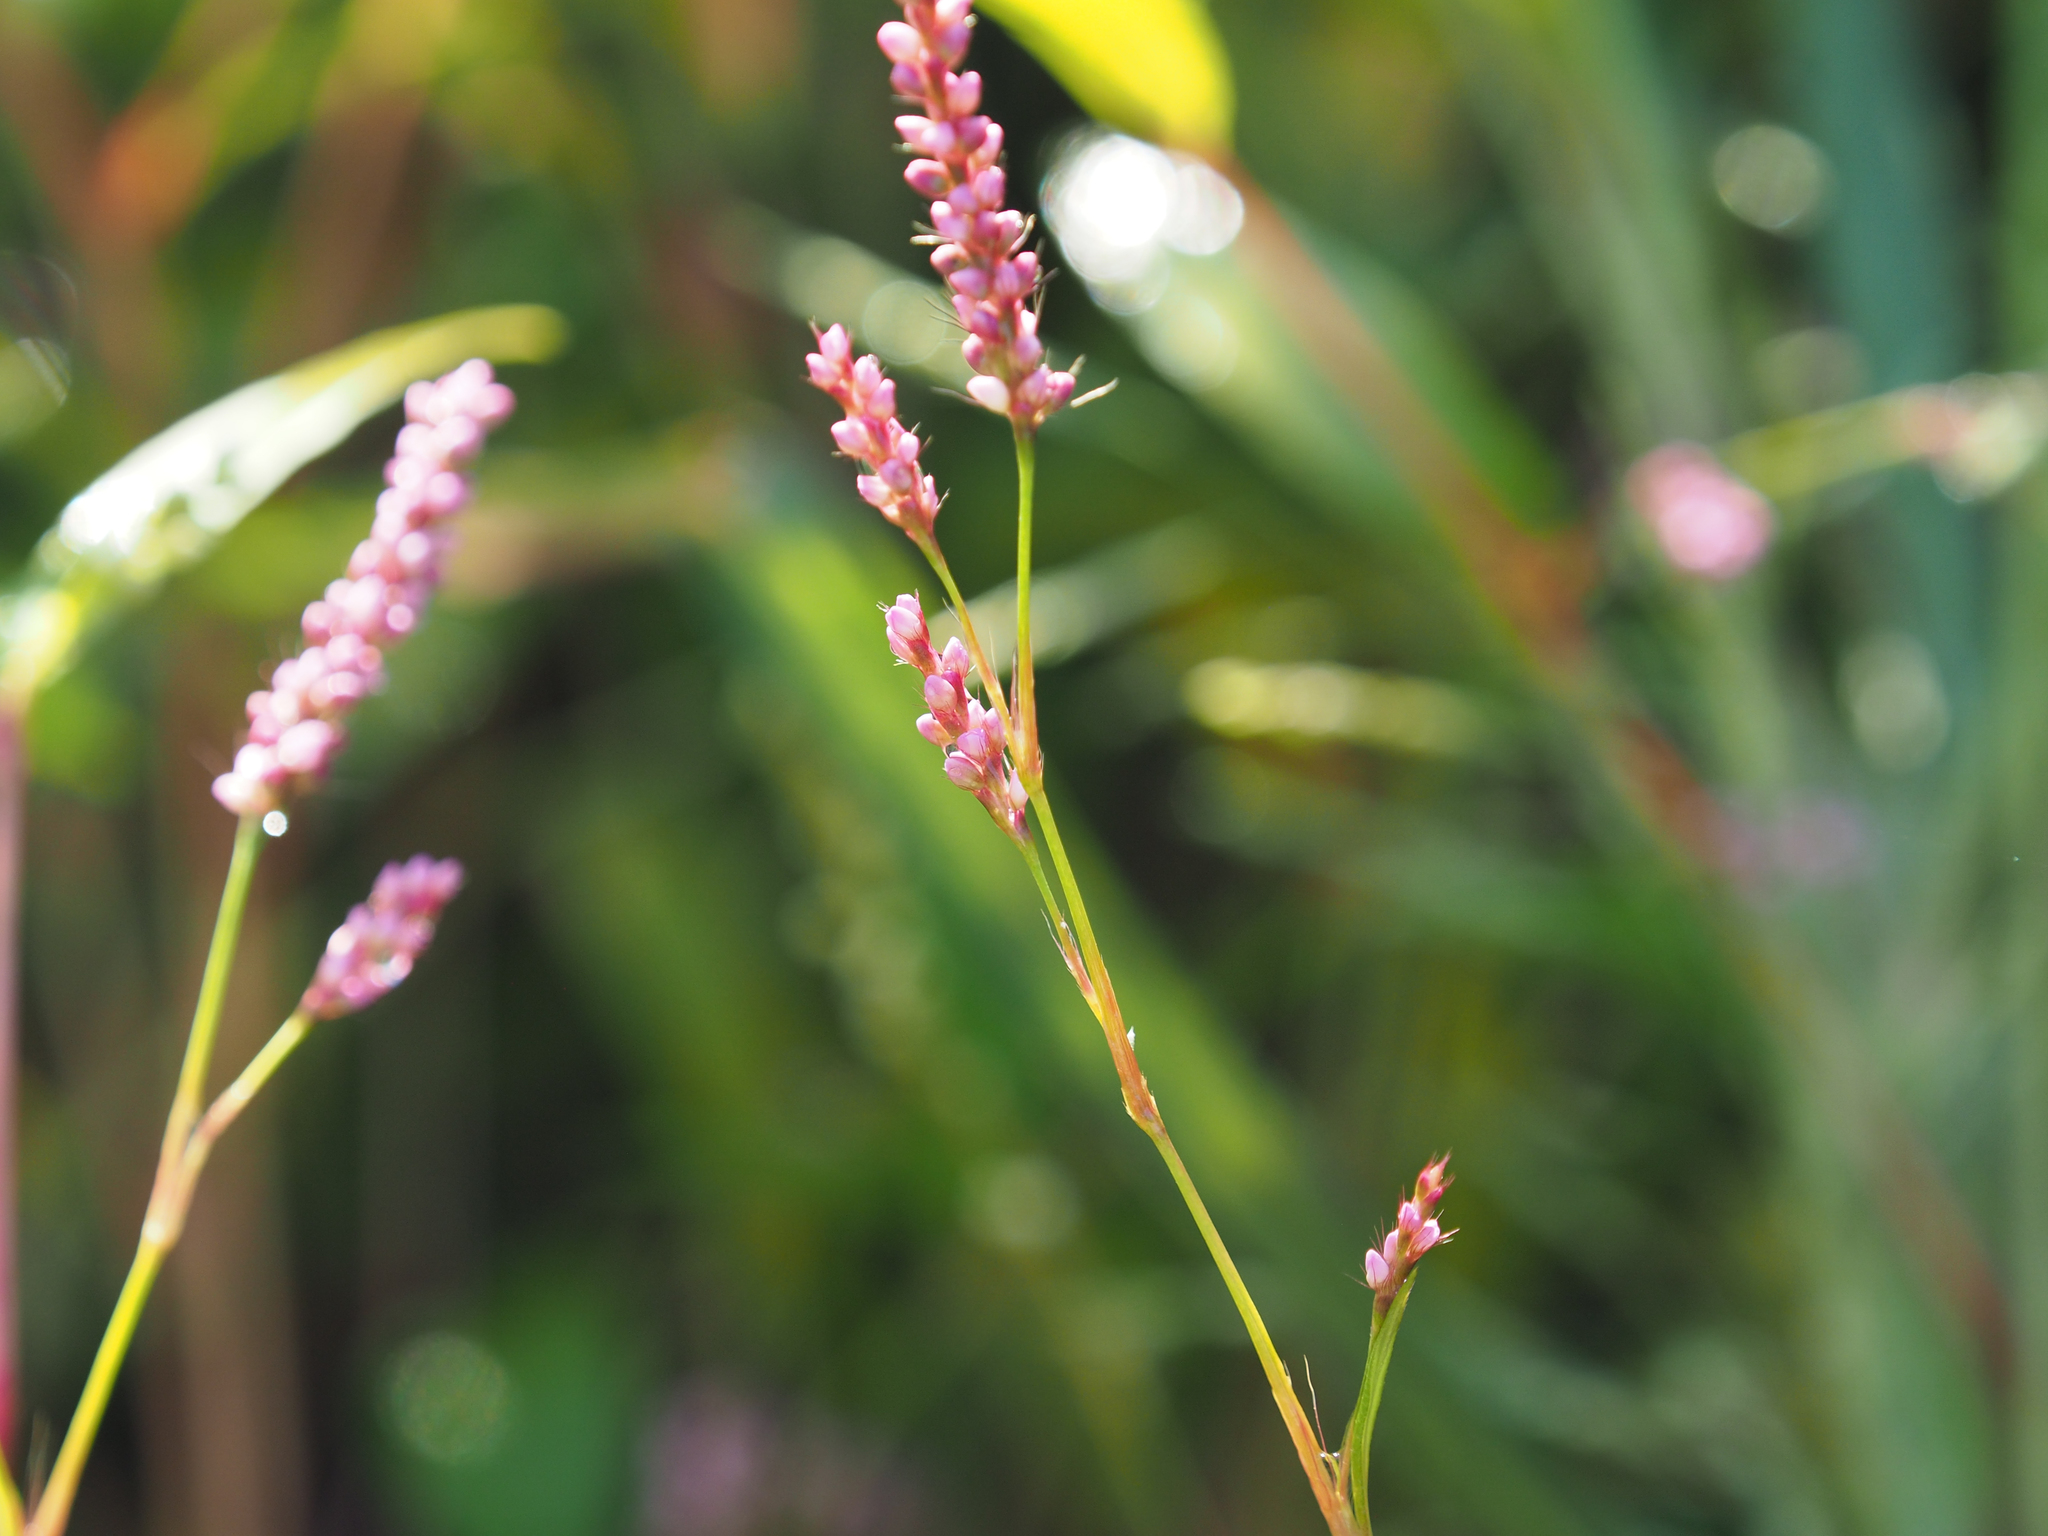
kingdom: Plantae
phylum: Tracheophyta
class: Magnoliopsida
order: Caryophyllales
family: Polygonaceae
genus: Persicaria
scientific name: Persicaria longiseta
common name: Bristly lady's-thumb
